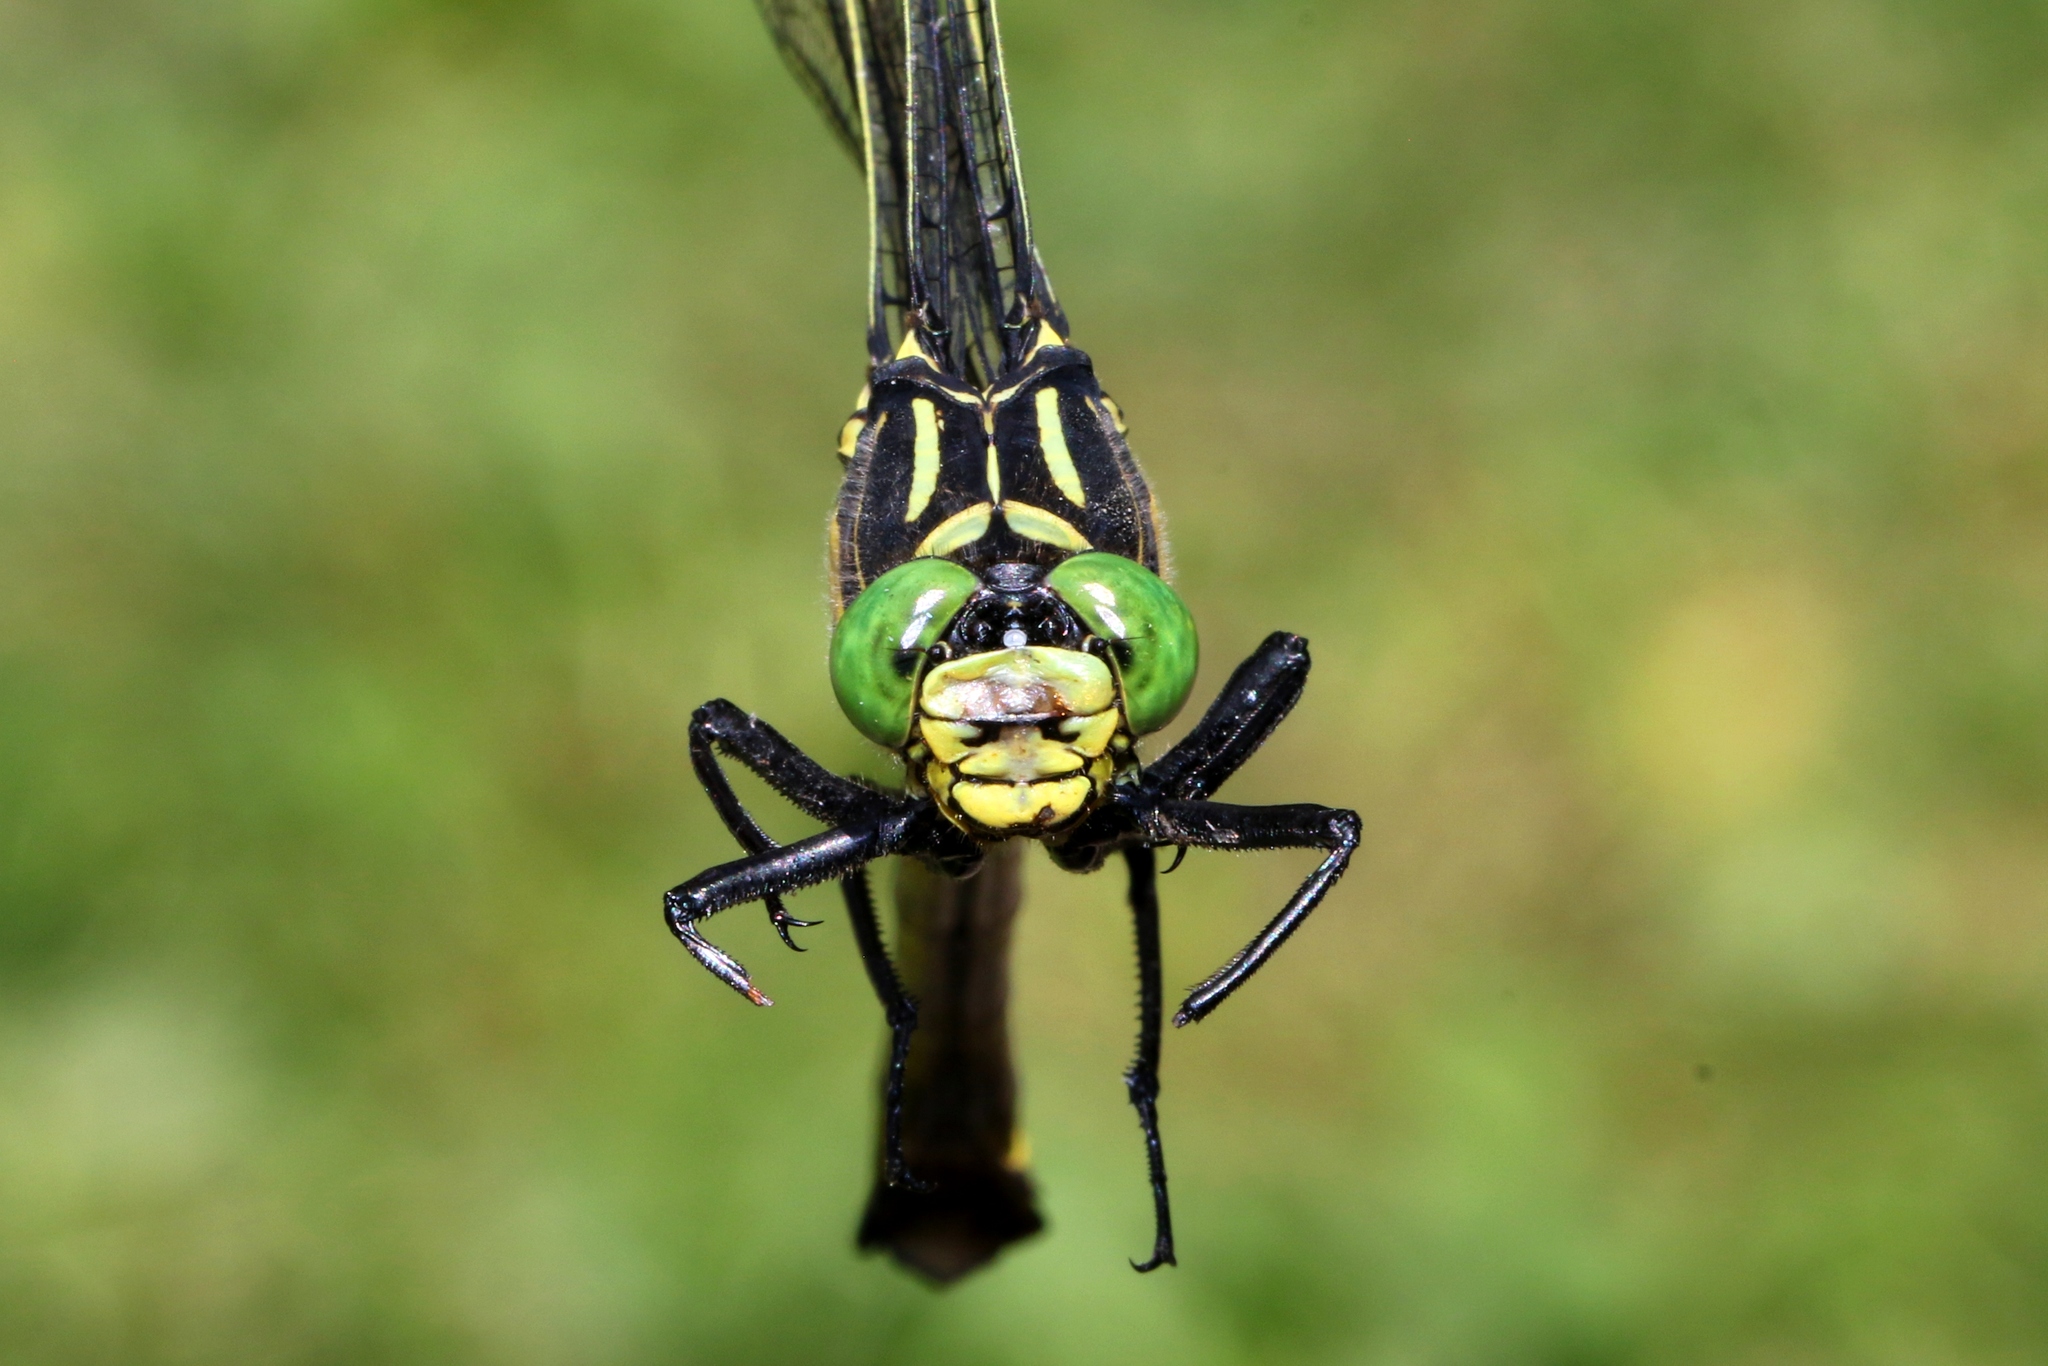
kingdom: Animalia
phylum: Arthropoda
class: Insecta
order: Odonata
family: Gomphidae
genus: Hagenius
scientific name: Hagenius brevistylus
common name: Dragonhunter
